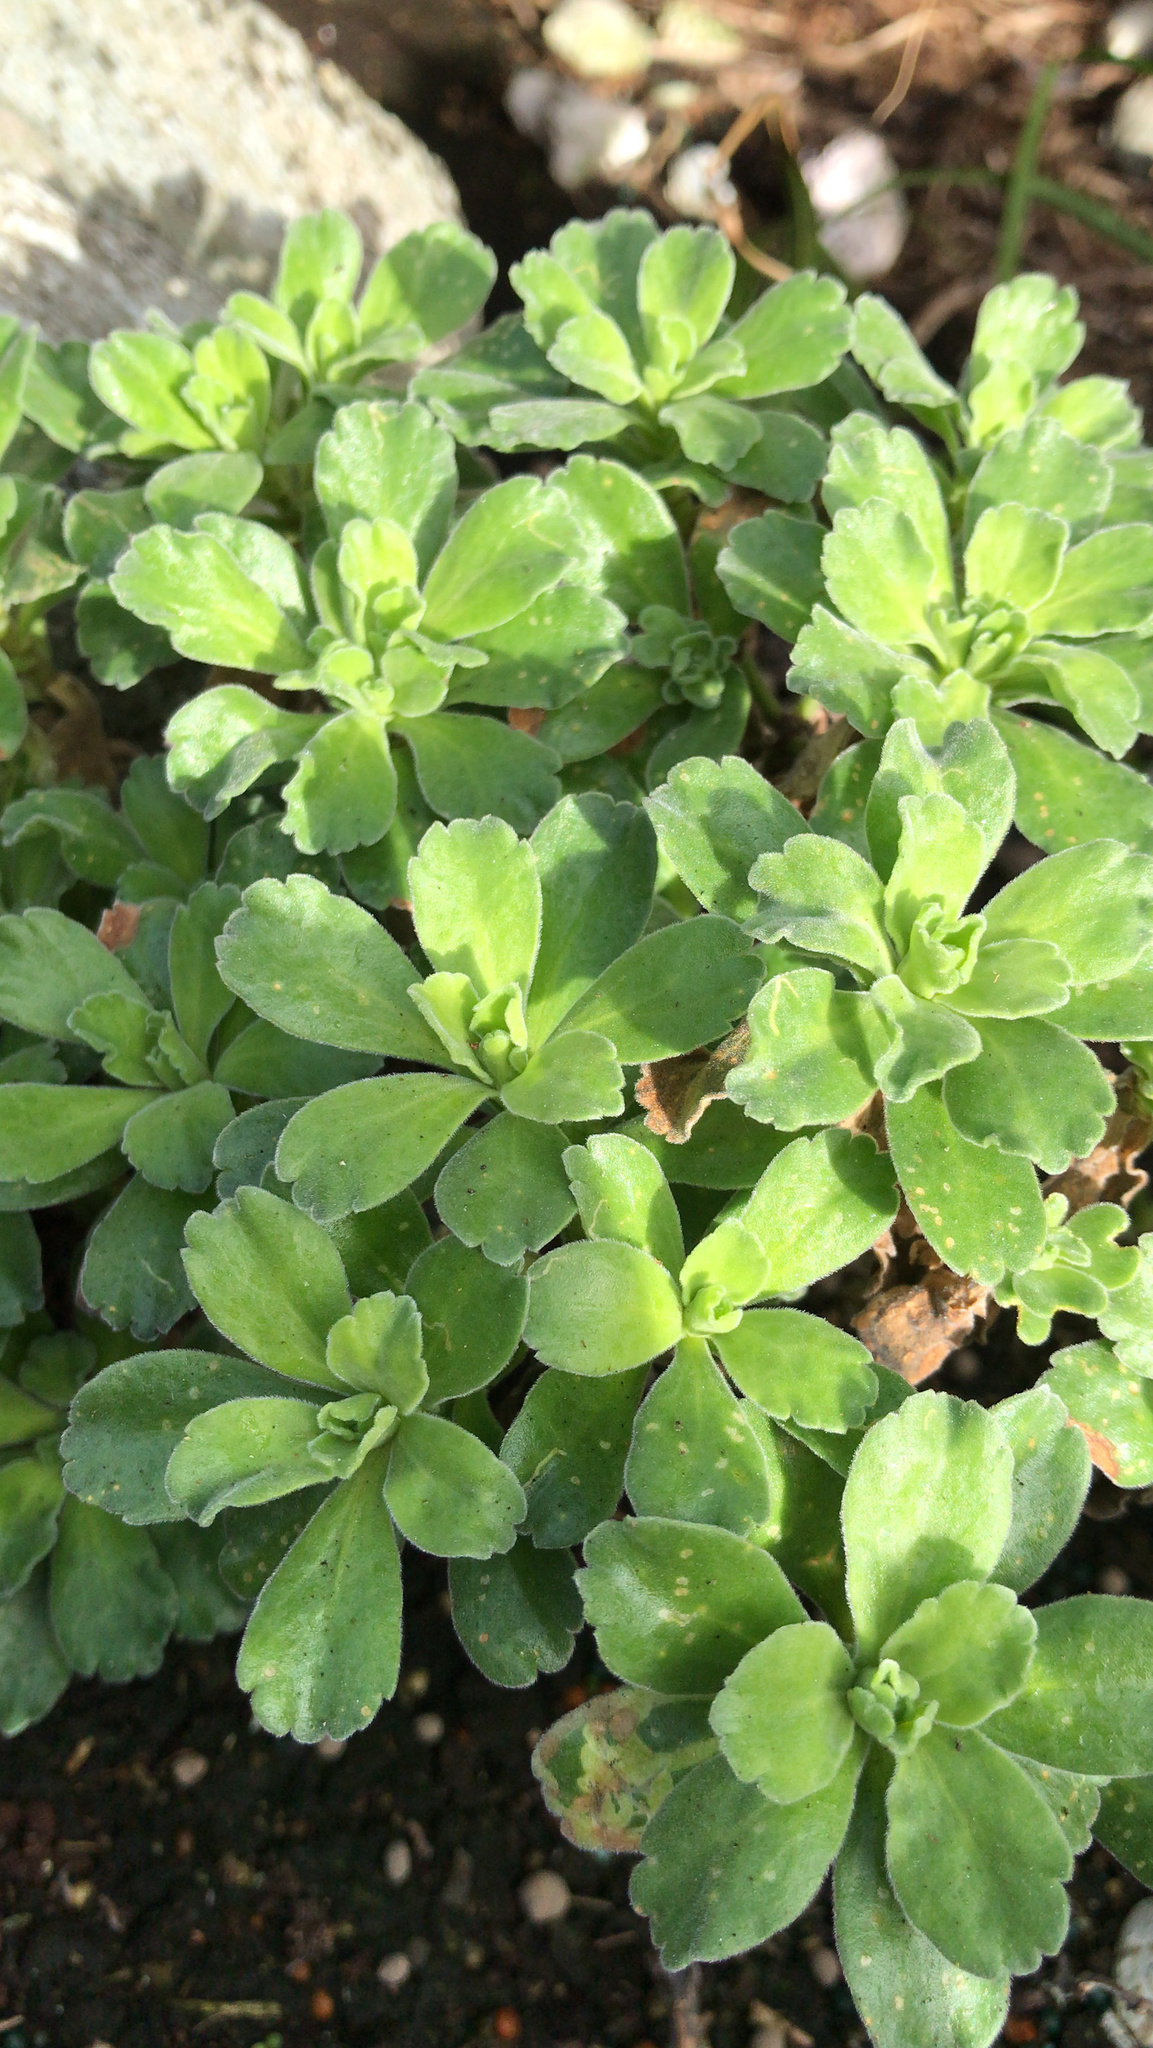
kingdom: Plantae
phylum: Tracheophyta
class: Magnoliopsida
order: Asterales
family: Asteraceae
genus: Leptinella
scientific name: Leptinella featherstonii
